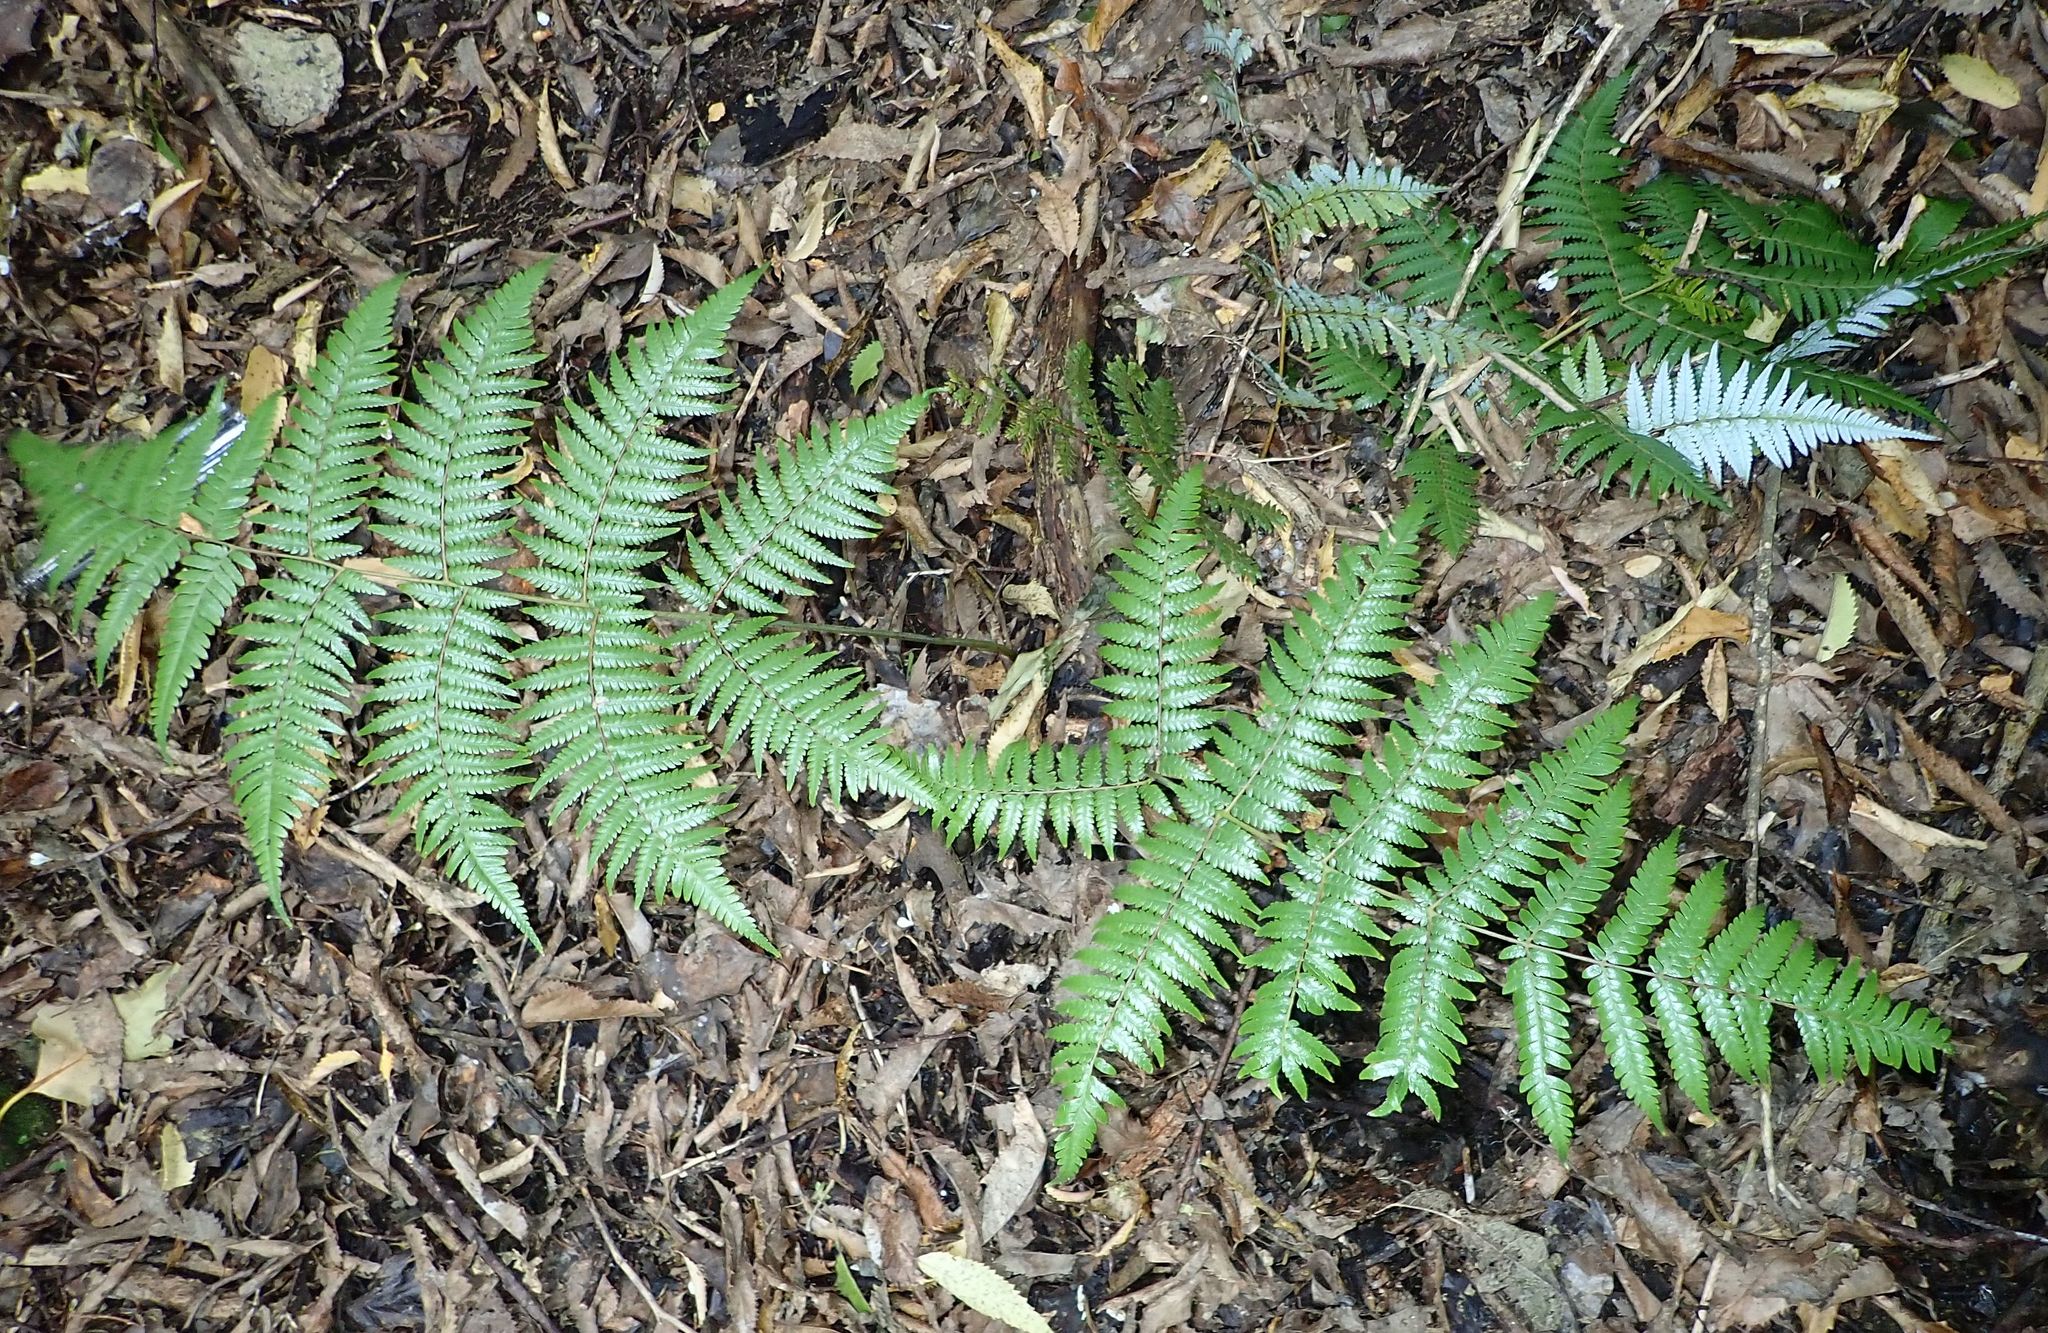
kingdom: Plantae
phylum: Tracheophyta
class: Polypodiopsida
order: Cyatheales
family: Cyatheaceae
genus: Alsophila
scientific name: Alsophila dealbata
